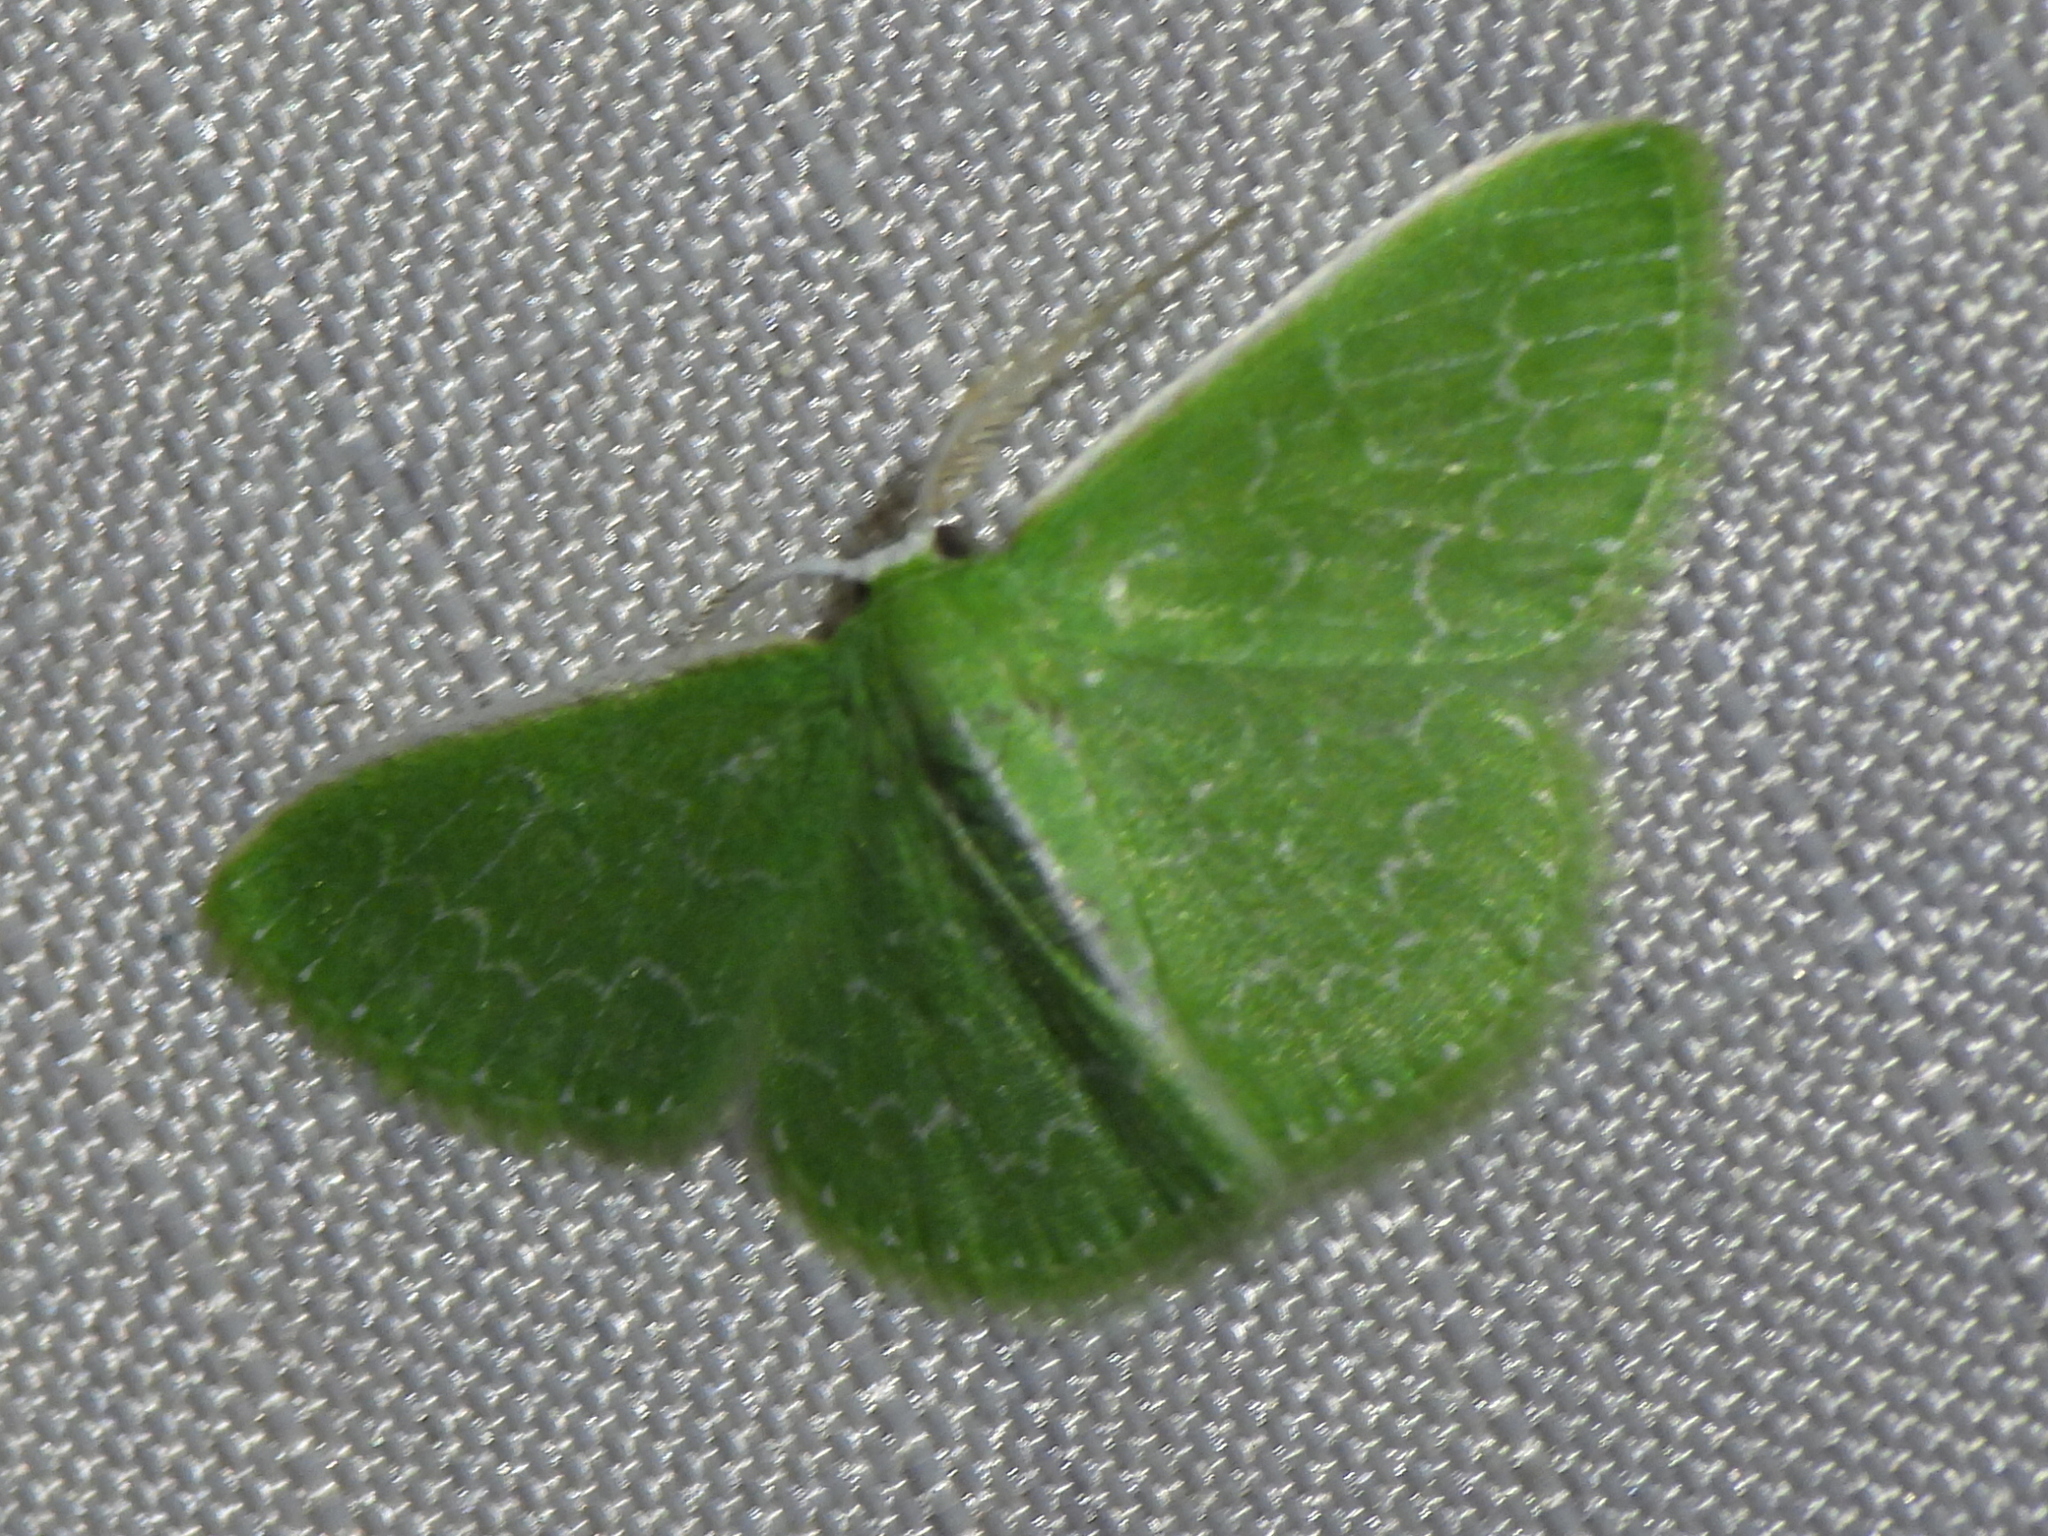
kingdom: Animalia
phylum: Arthropoda
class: Insecta
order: Lepidoptera
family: Geometridae
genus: Synchlora
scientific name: Synchlora frondaria
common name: Southern emerald
